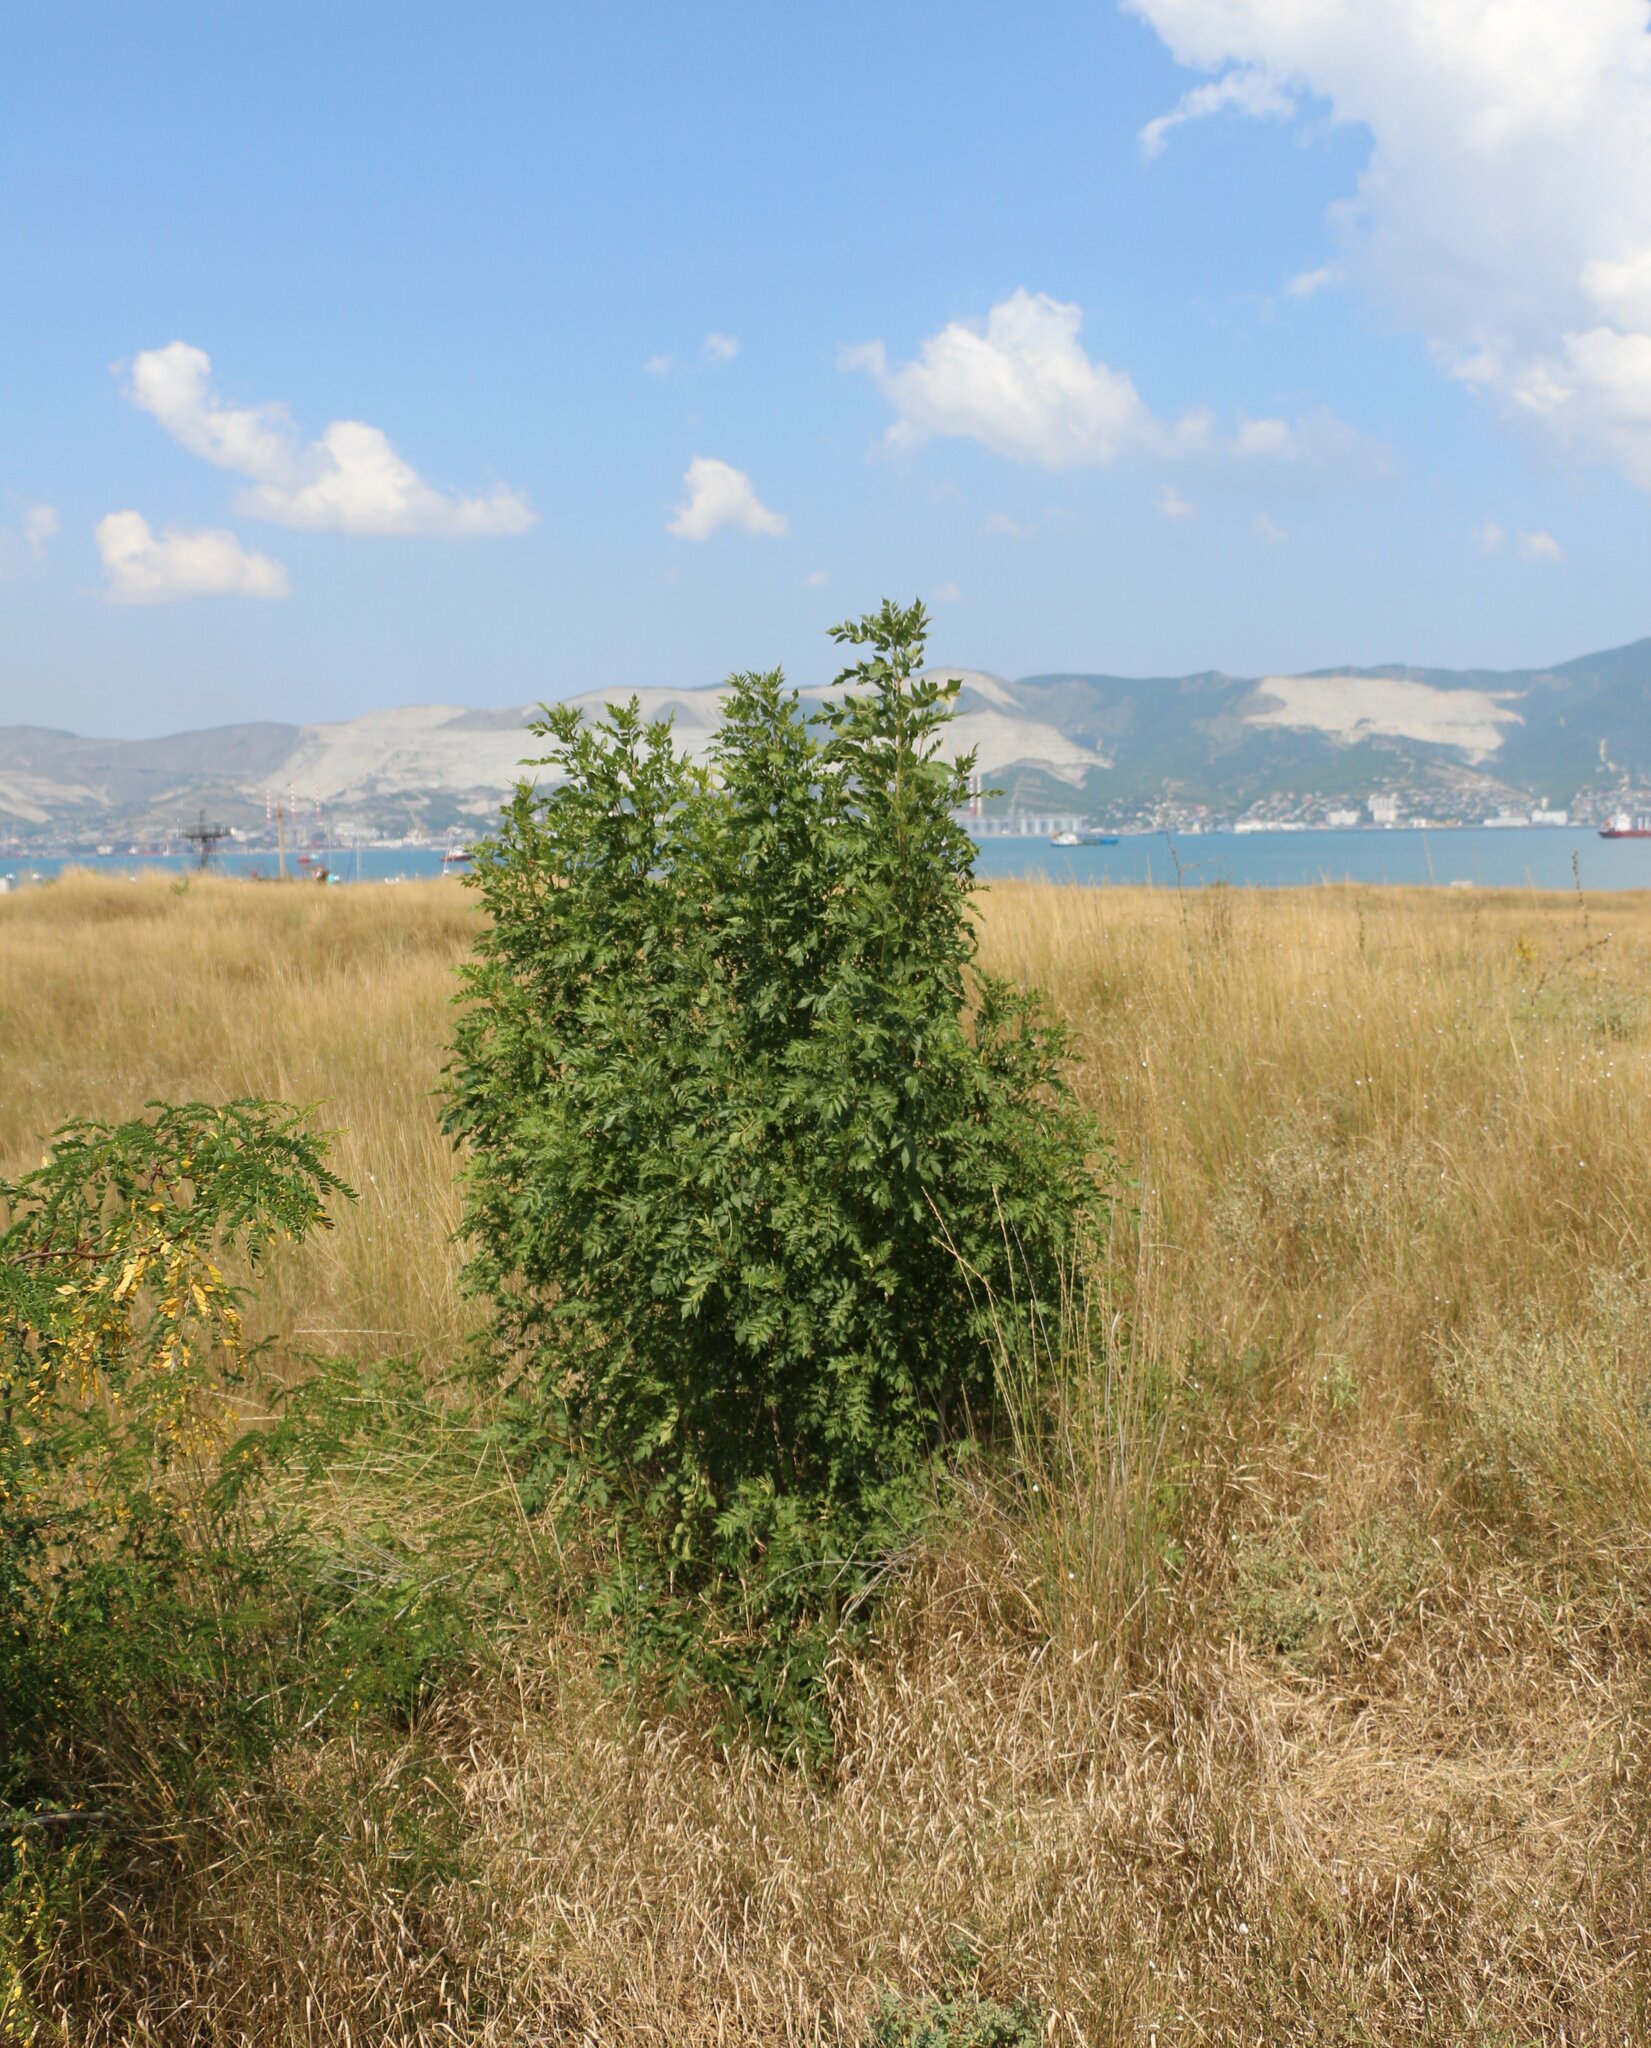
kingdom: Plantae
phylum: Tracheophyta
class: Magnoliopsida
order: Lamiales
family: Oleaceae
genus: Fraxinus
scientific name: Fraxinus excelsior
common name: European ash
